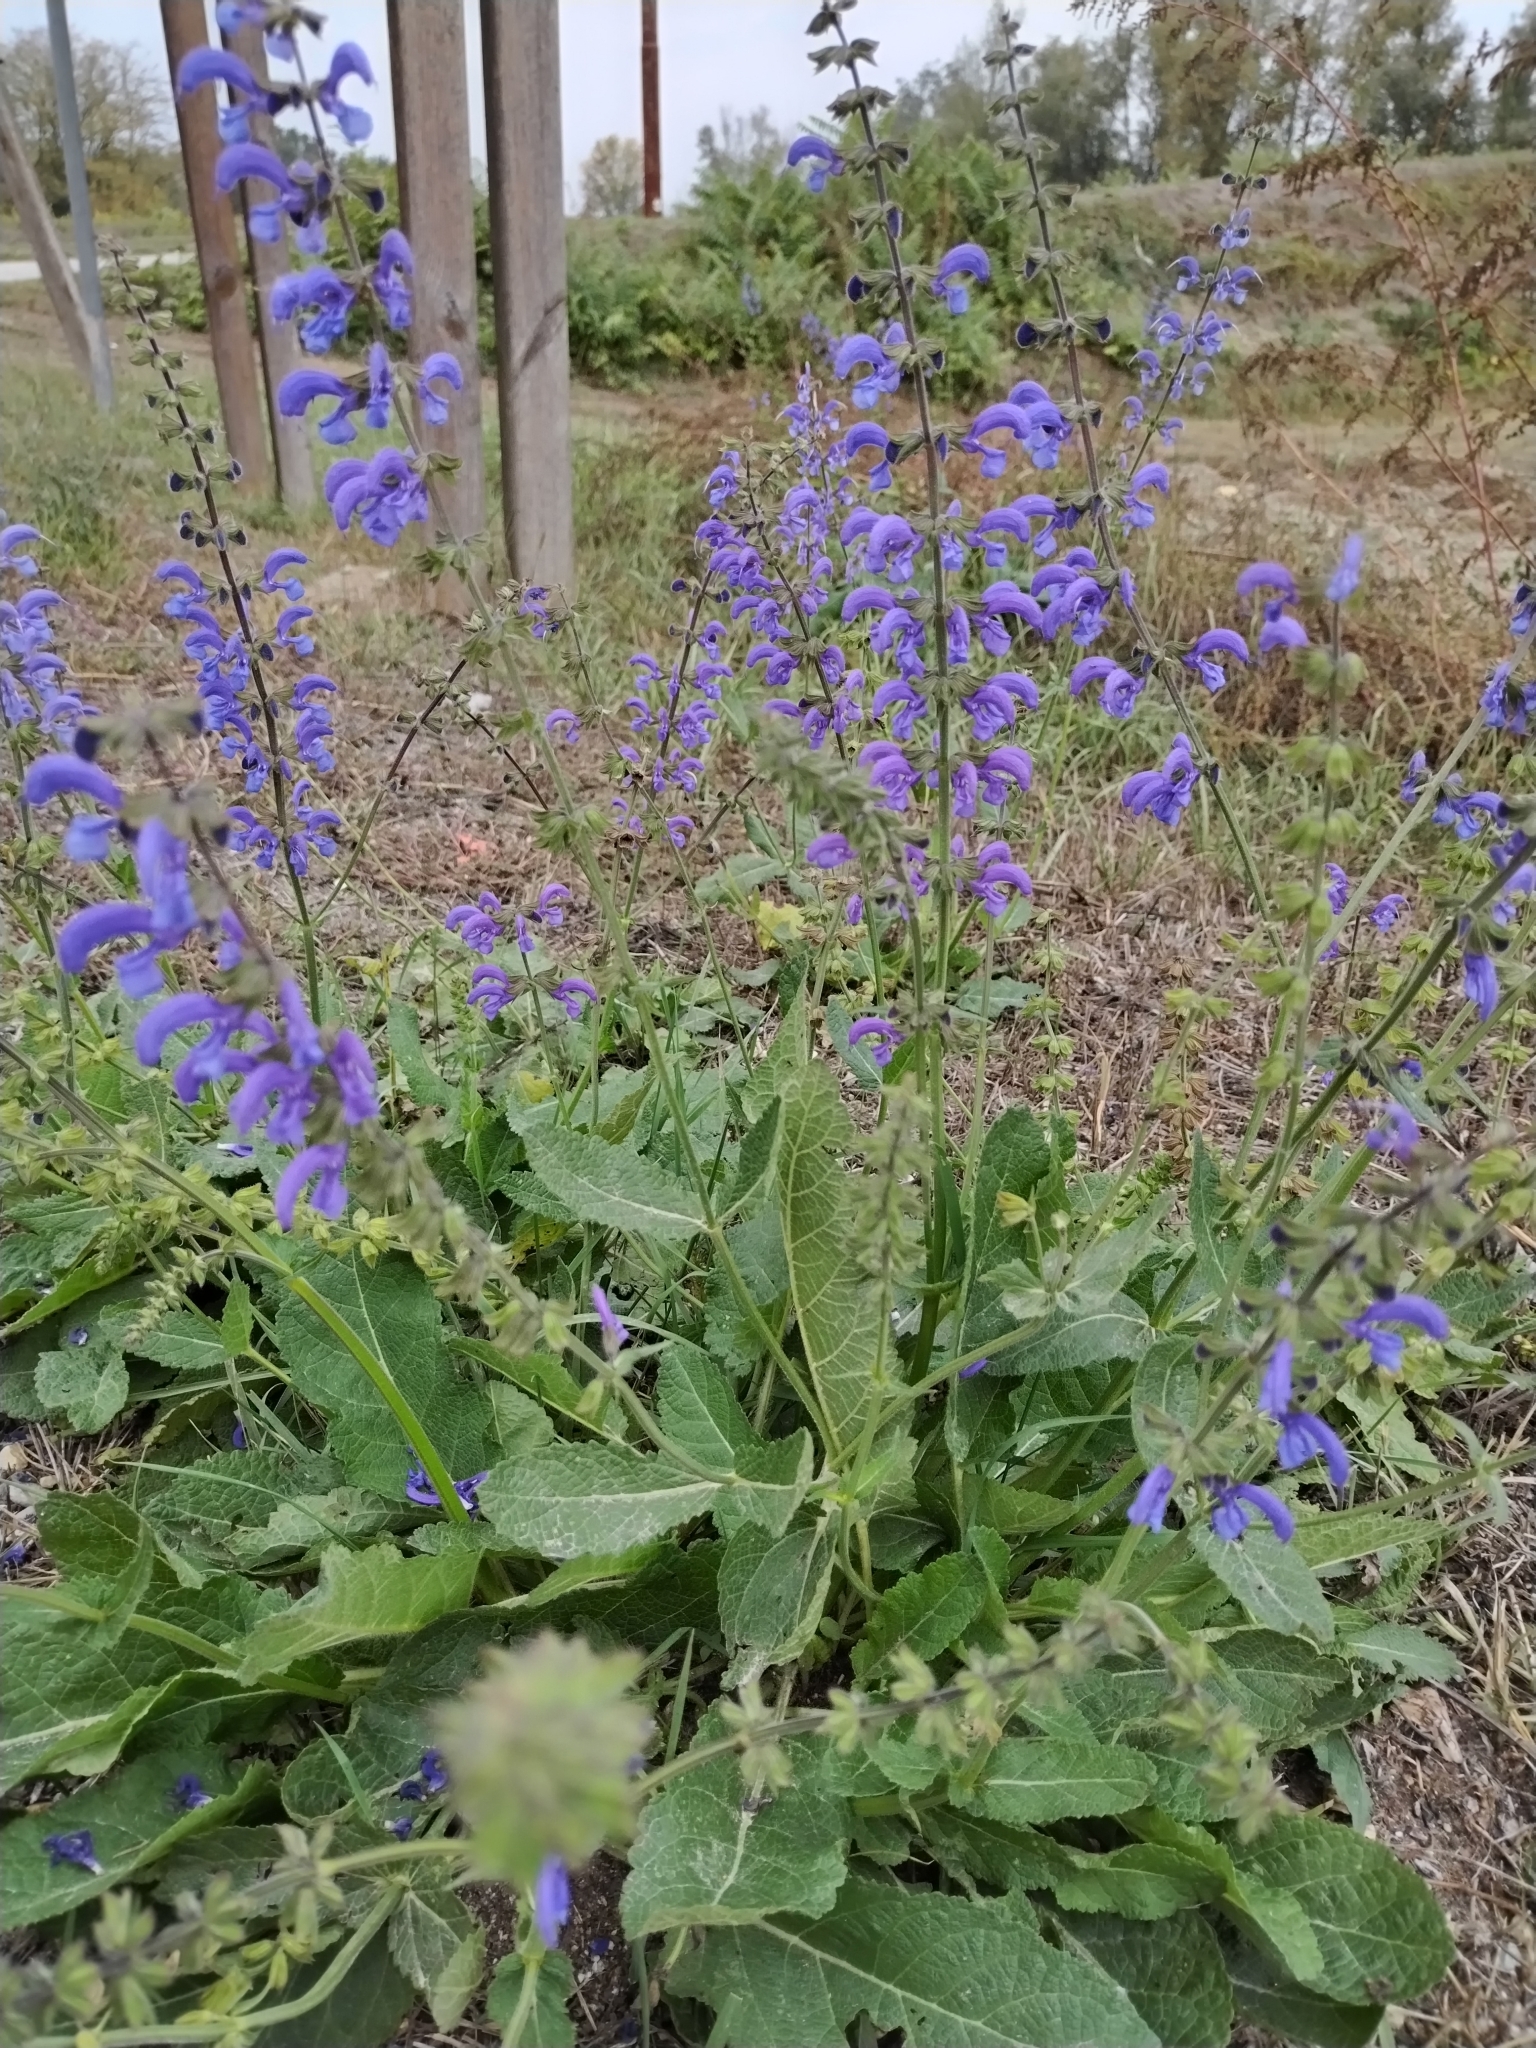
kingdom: Plantae
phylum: Tracheophyta
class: Magnoliopsida
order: Lamiales
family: Lamiaceae
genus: Salvia
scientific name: Salvia pratensis
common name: Meadow sage
